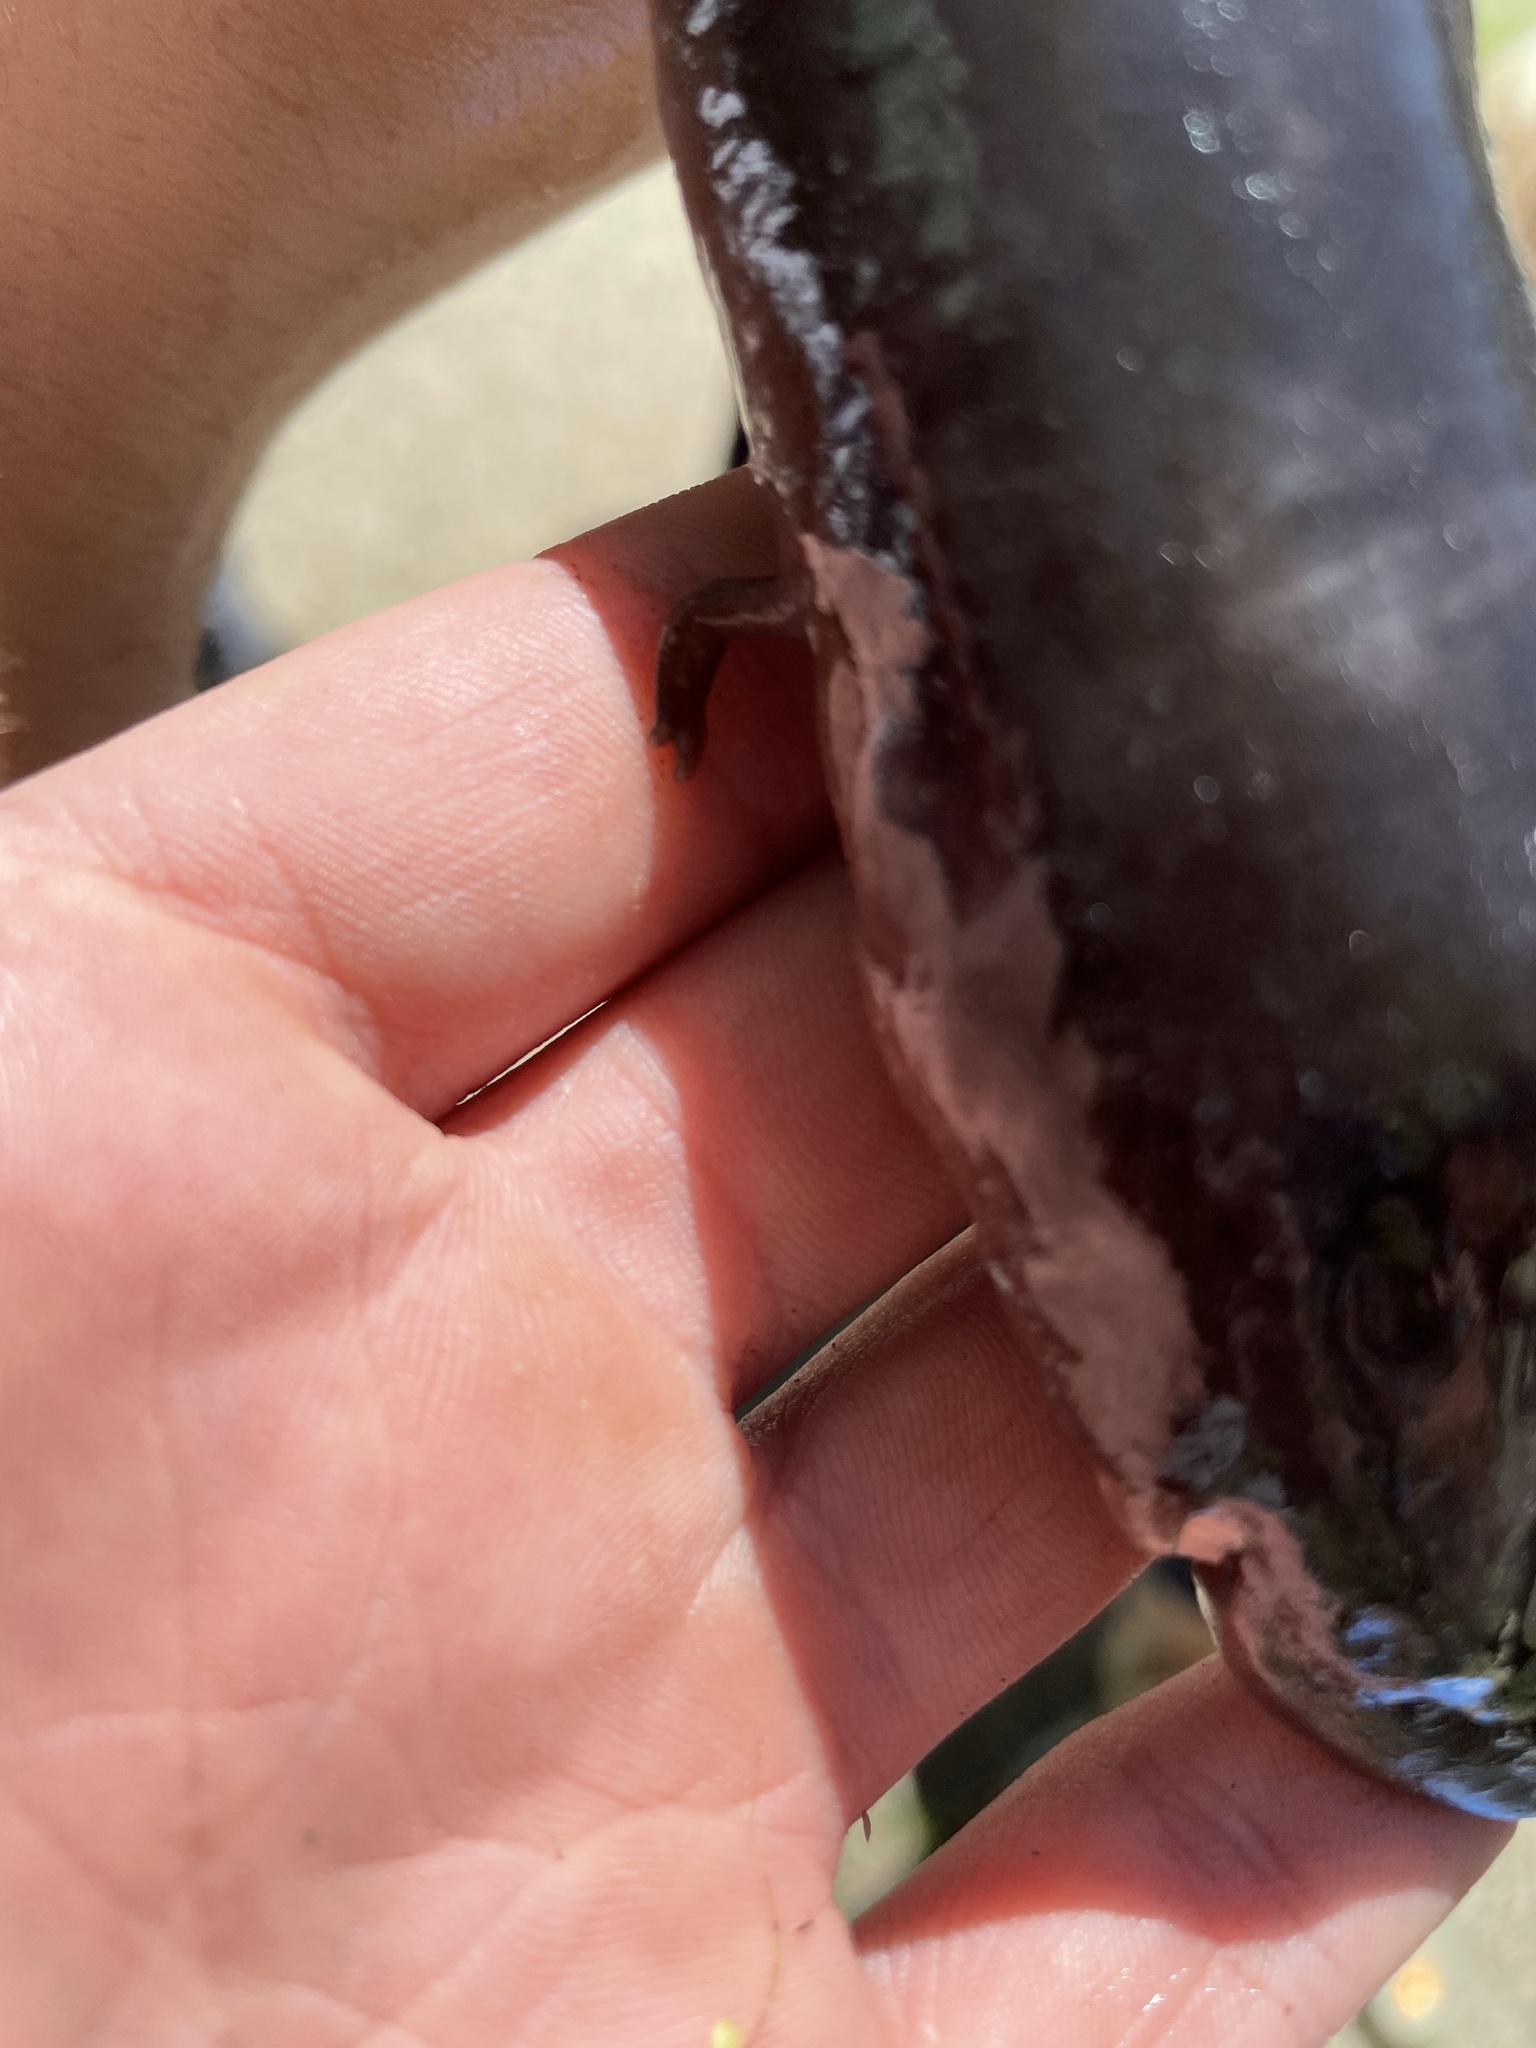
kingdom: Animalia
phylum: Chordata
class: Amphibia
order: Caudata
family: Amphiumidae
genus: Amphiuma
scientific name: Amphiuma tridactylum
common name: Three-toed amphiuma
